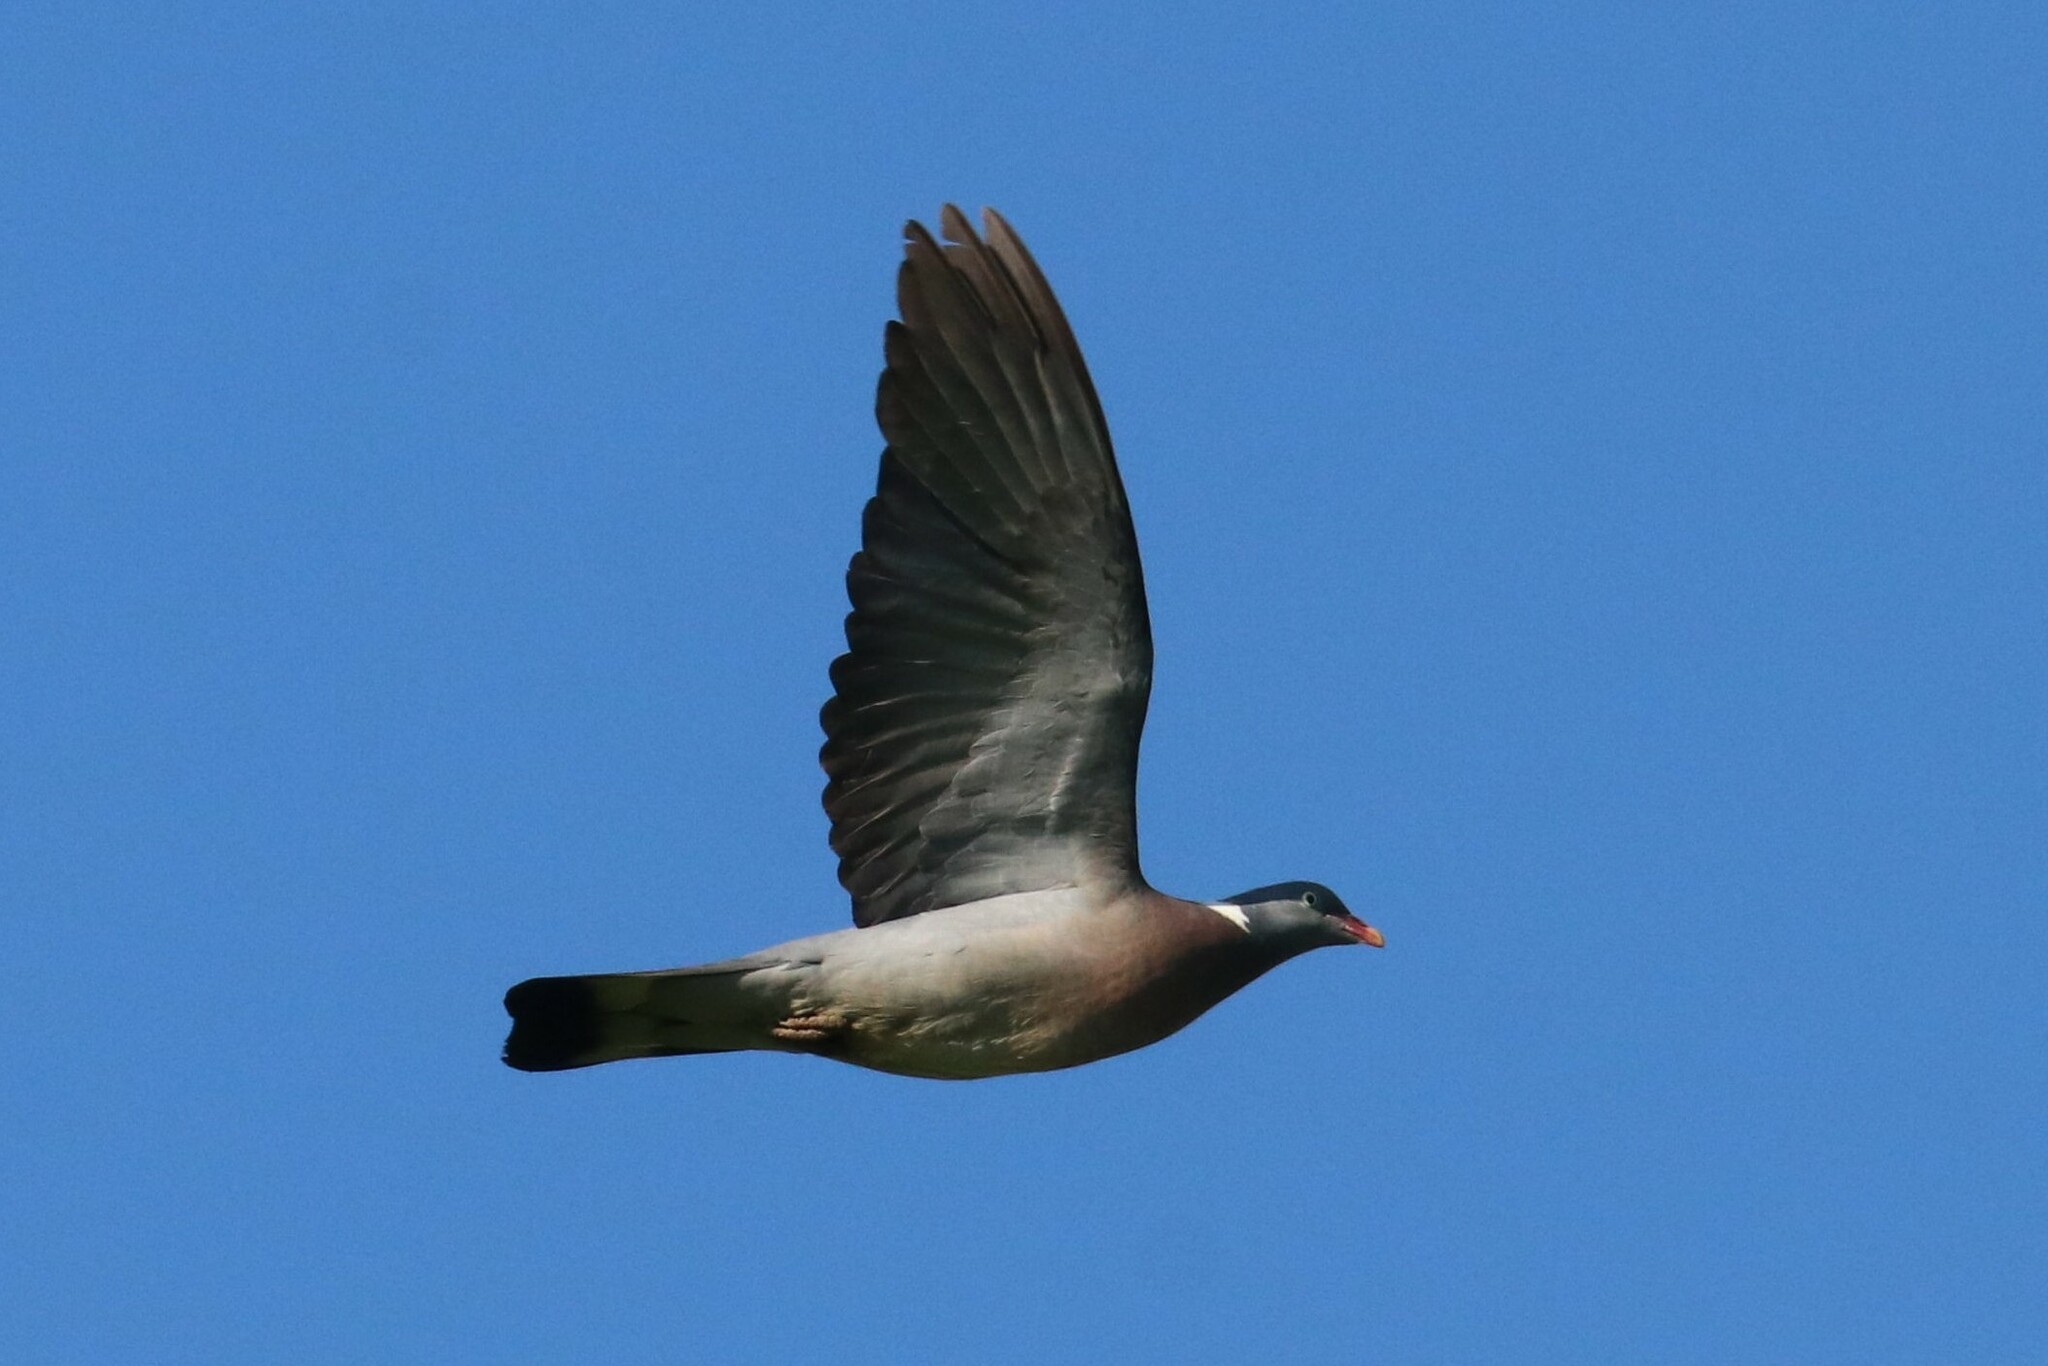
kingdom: Animalia
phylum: Chordata
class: Aves
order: Columbiformes
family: Columbidae
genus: Columba
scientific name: Columba palumbus
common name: Common wood pigeon
